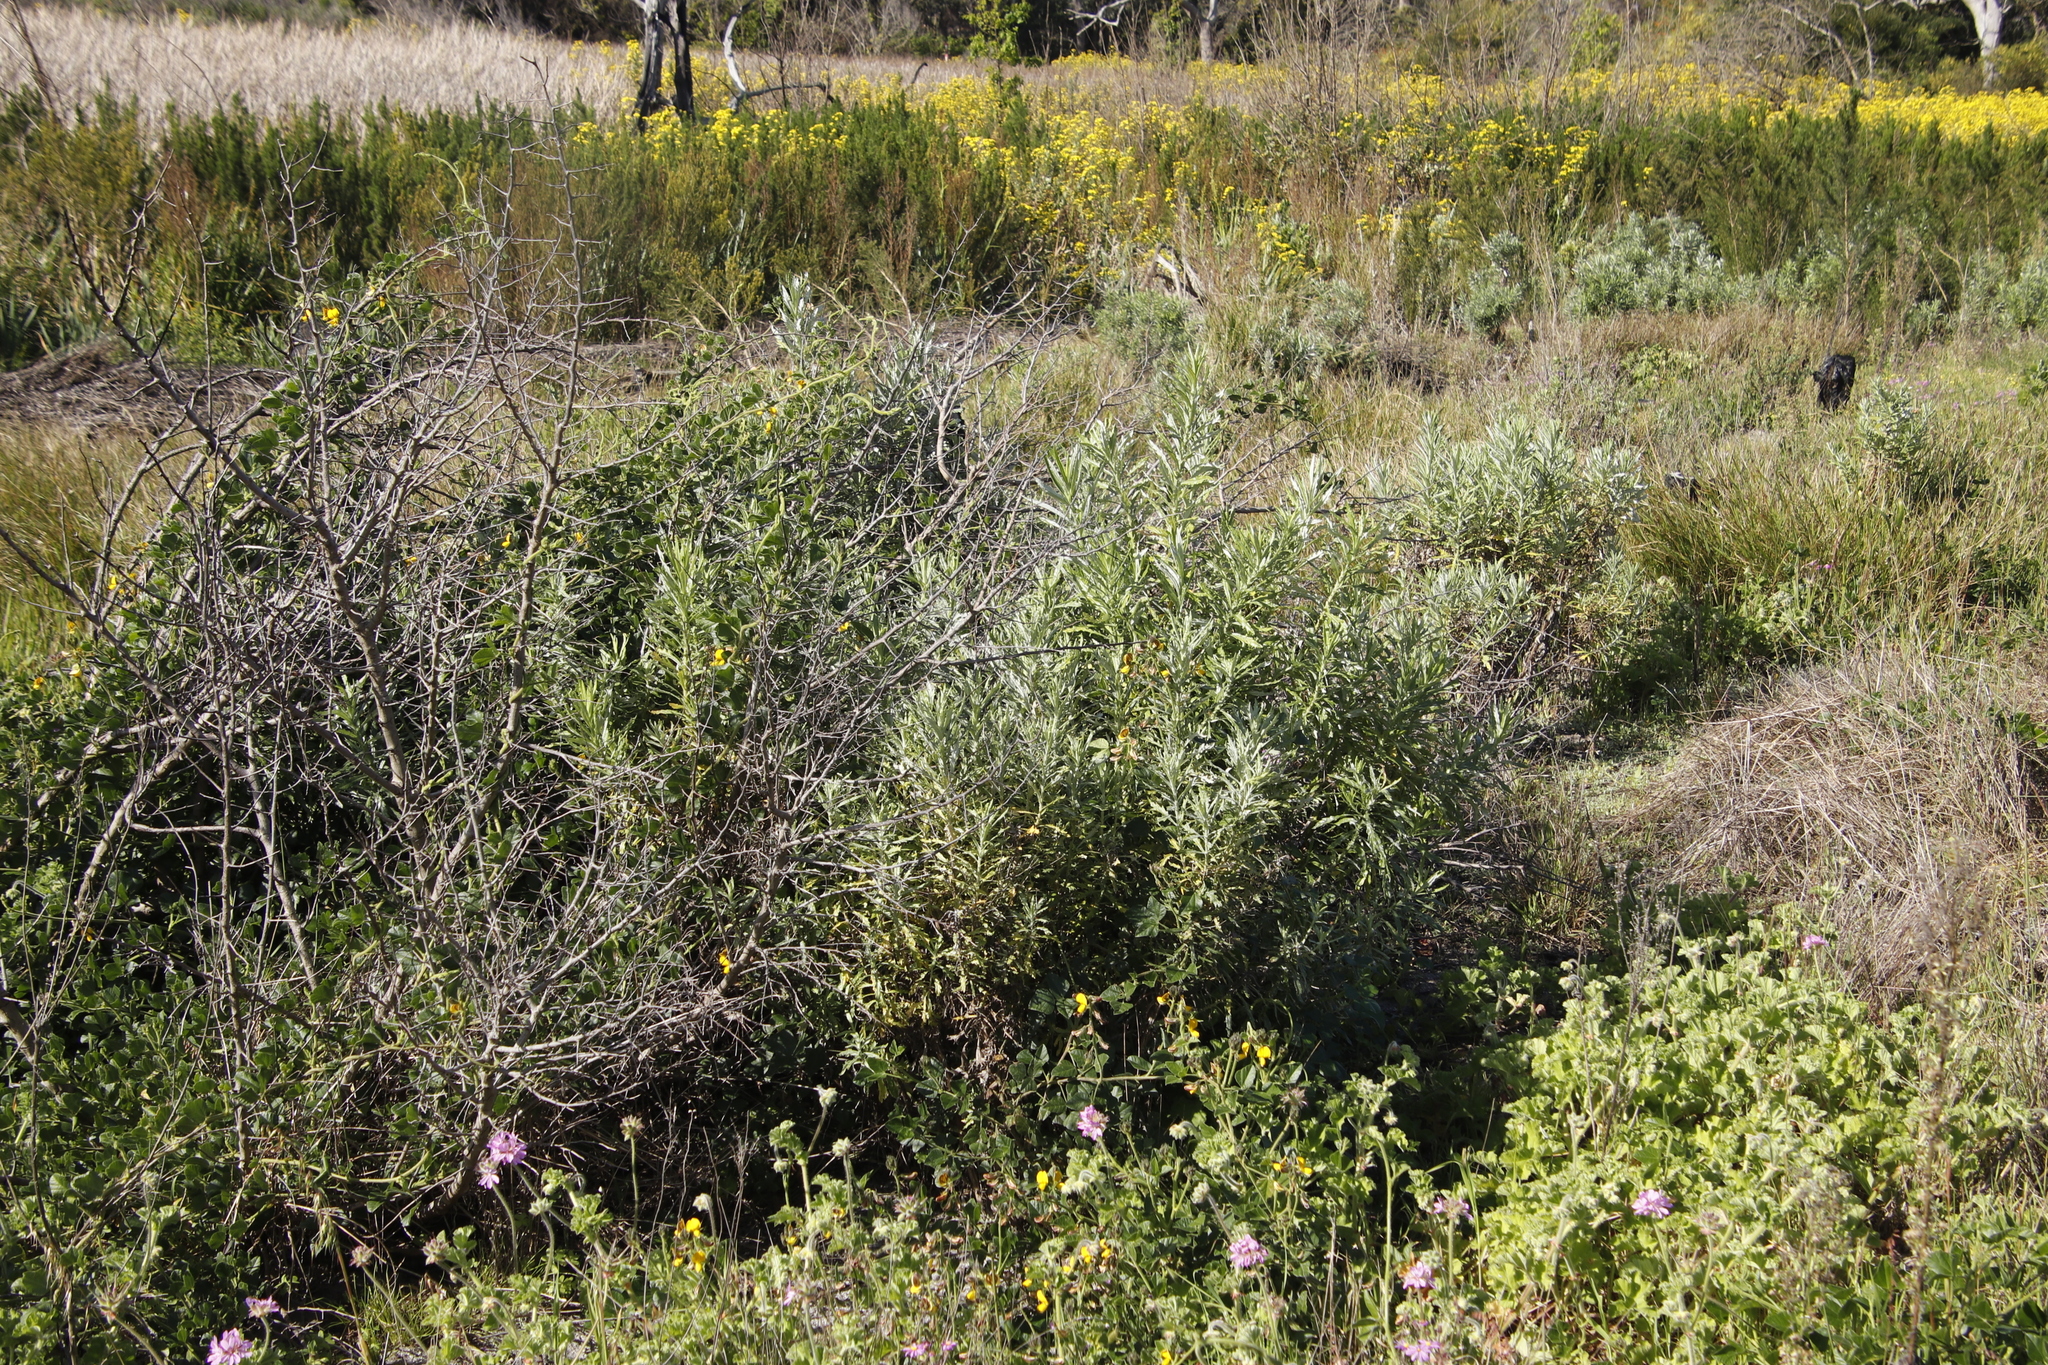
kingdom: Plantae
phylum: Tracheophyta
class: Magnoliopsida
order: Asterales
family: Asteraceae
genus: Senecio
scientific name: Senecio pterophorus
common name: Shoddy ragwort
